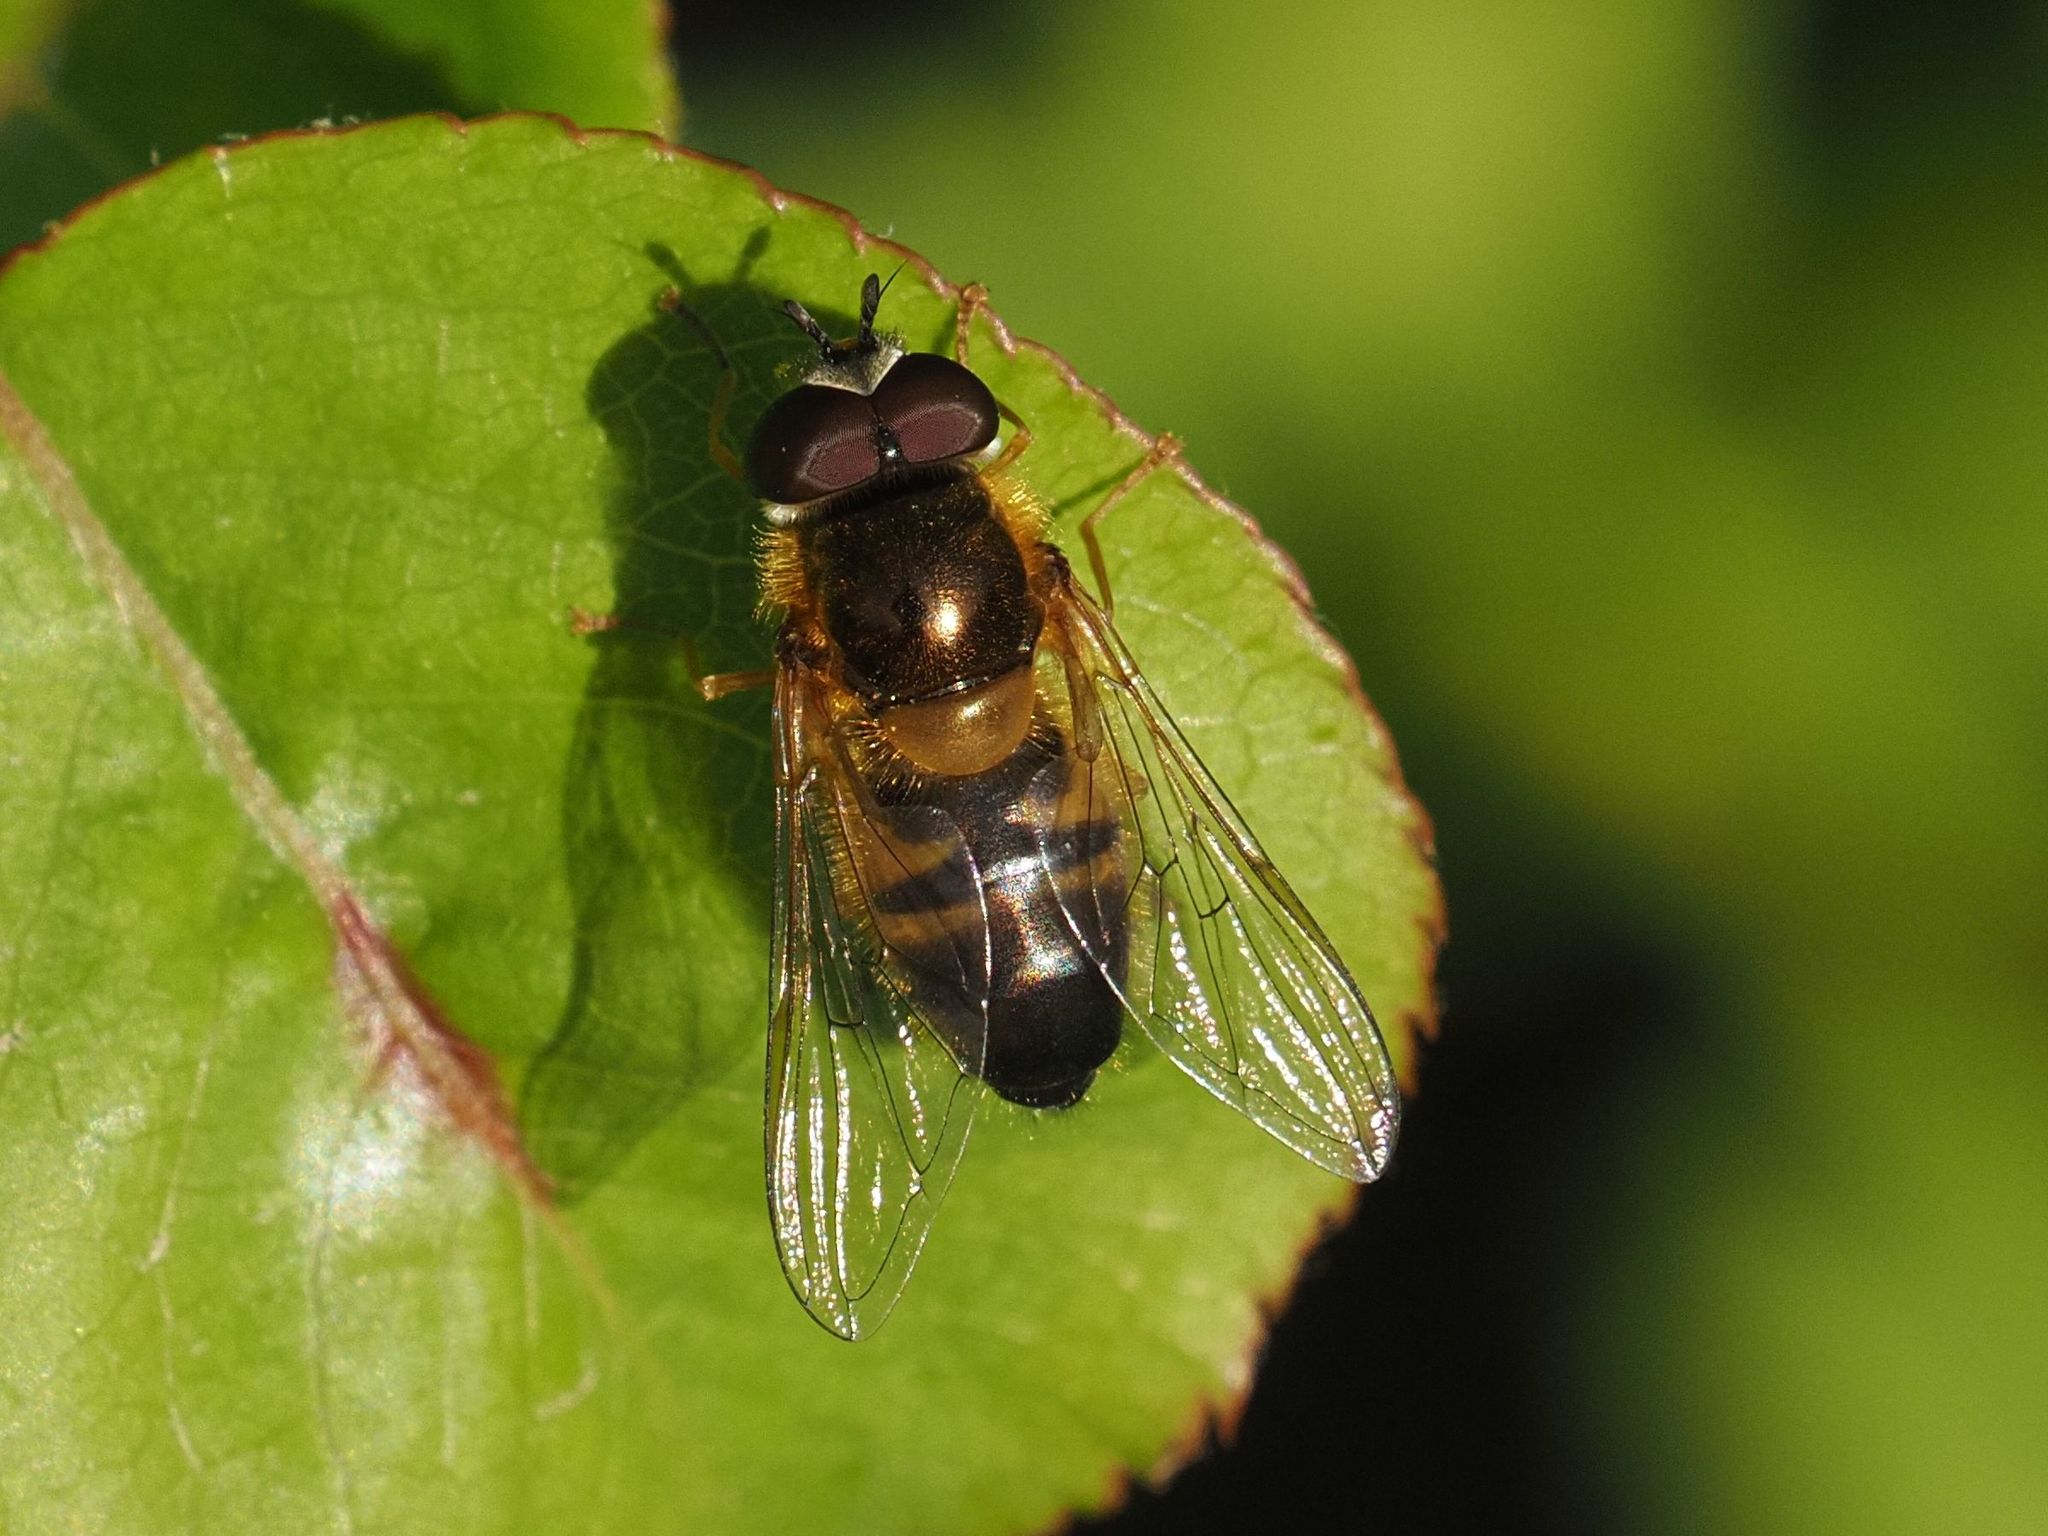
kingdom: Animalia
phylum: Arthropoda
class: Insecta
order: Diptera
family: Syrphidae
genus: Epistrophe
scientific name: Epistrophe eligans
